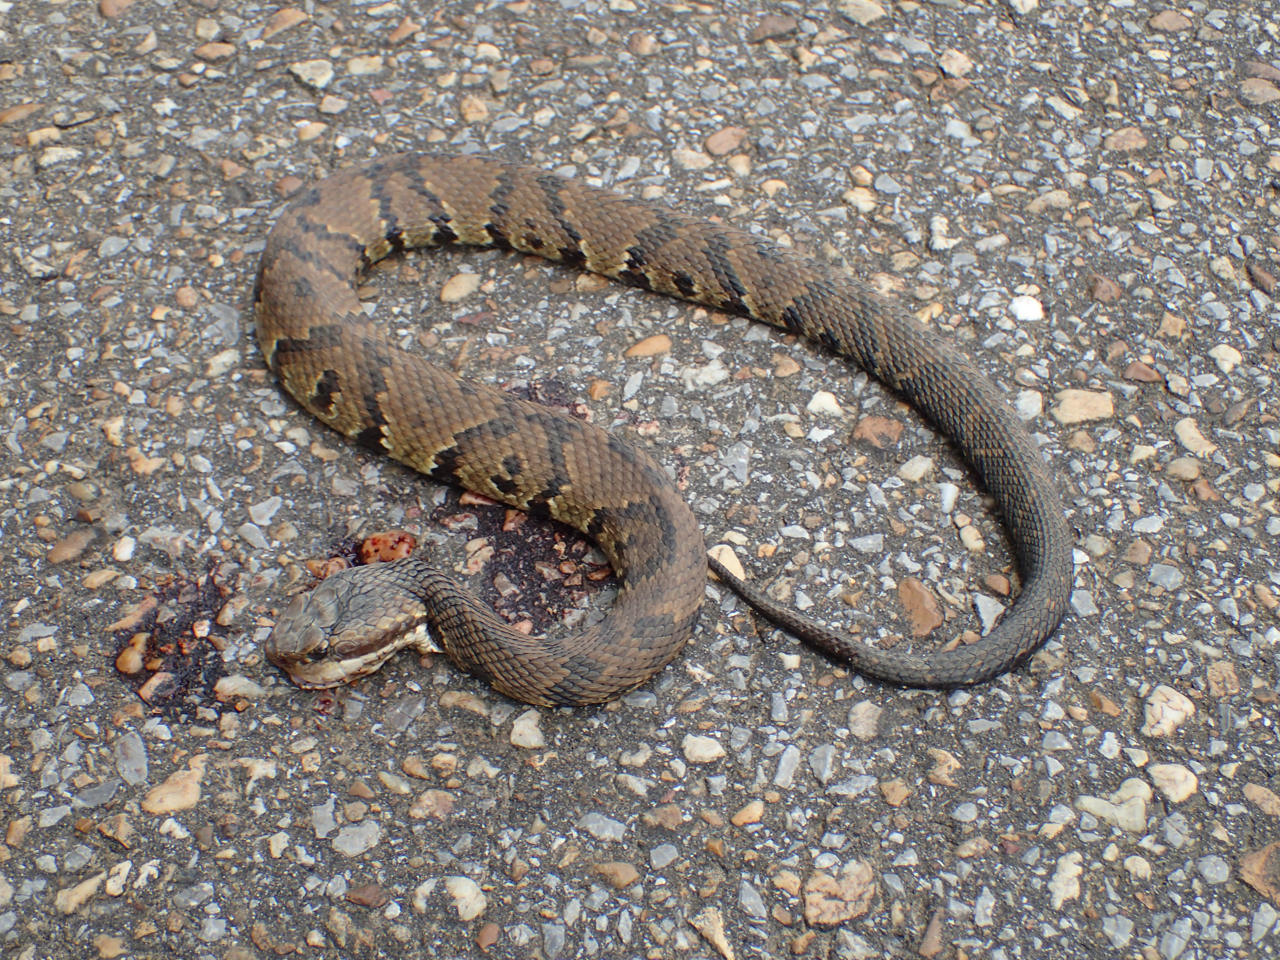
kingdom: Animalia
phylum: Chordata
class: Squamata
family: Viperidae
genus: Agkistrodon
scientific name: Agkistrodon piscivorus
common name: Cottonmouth
